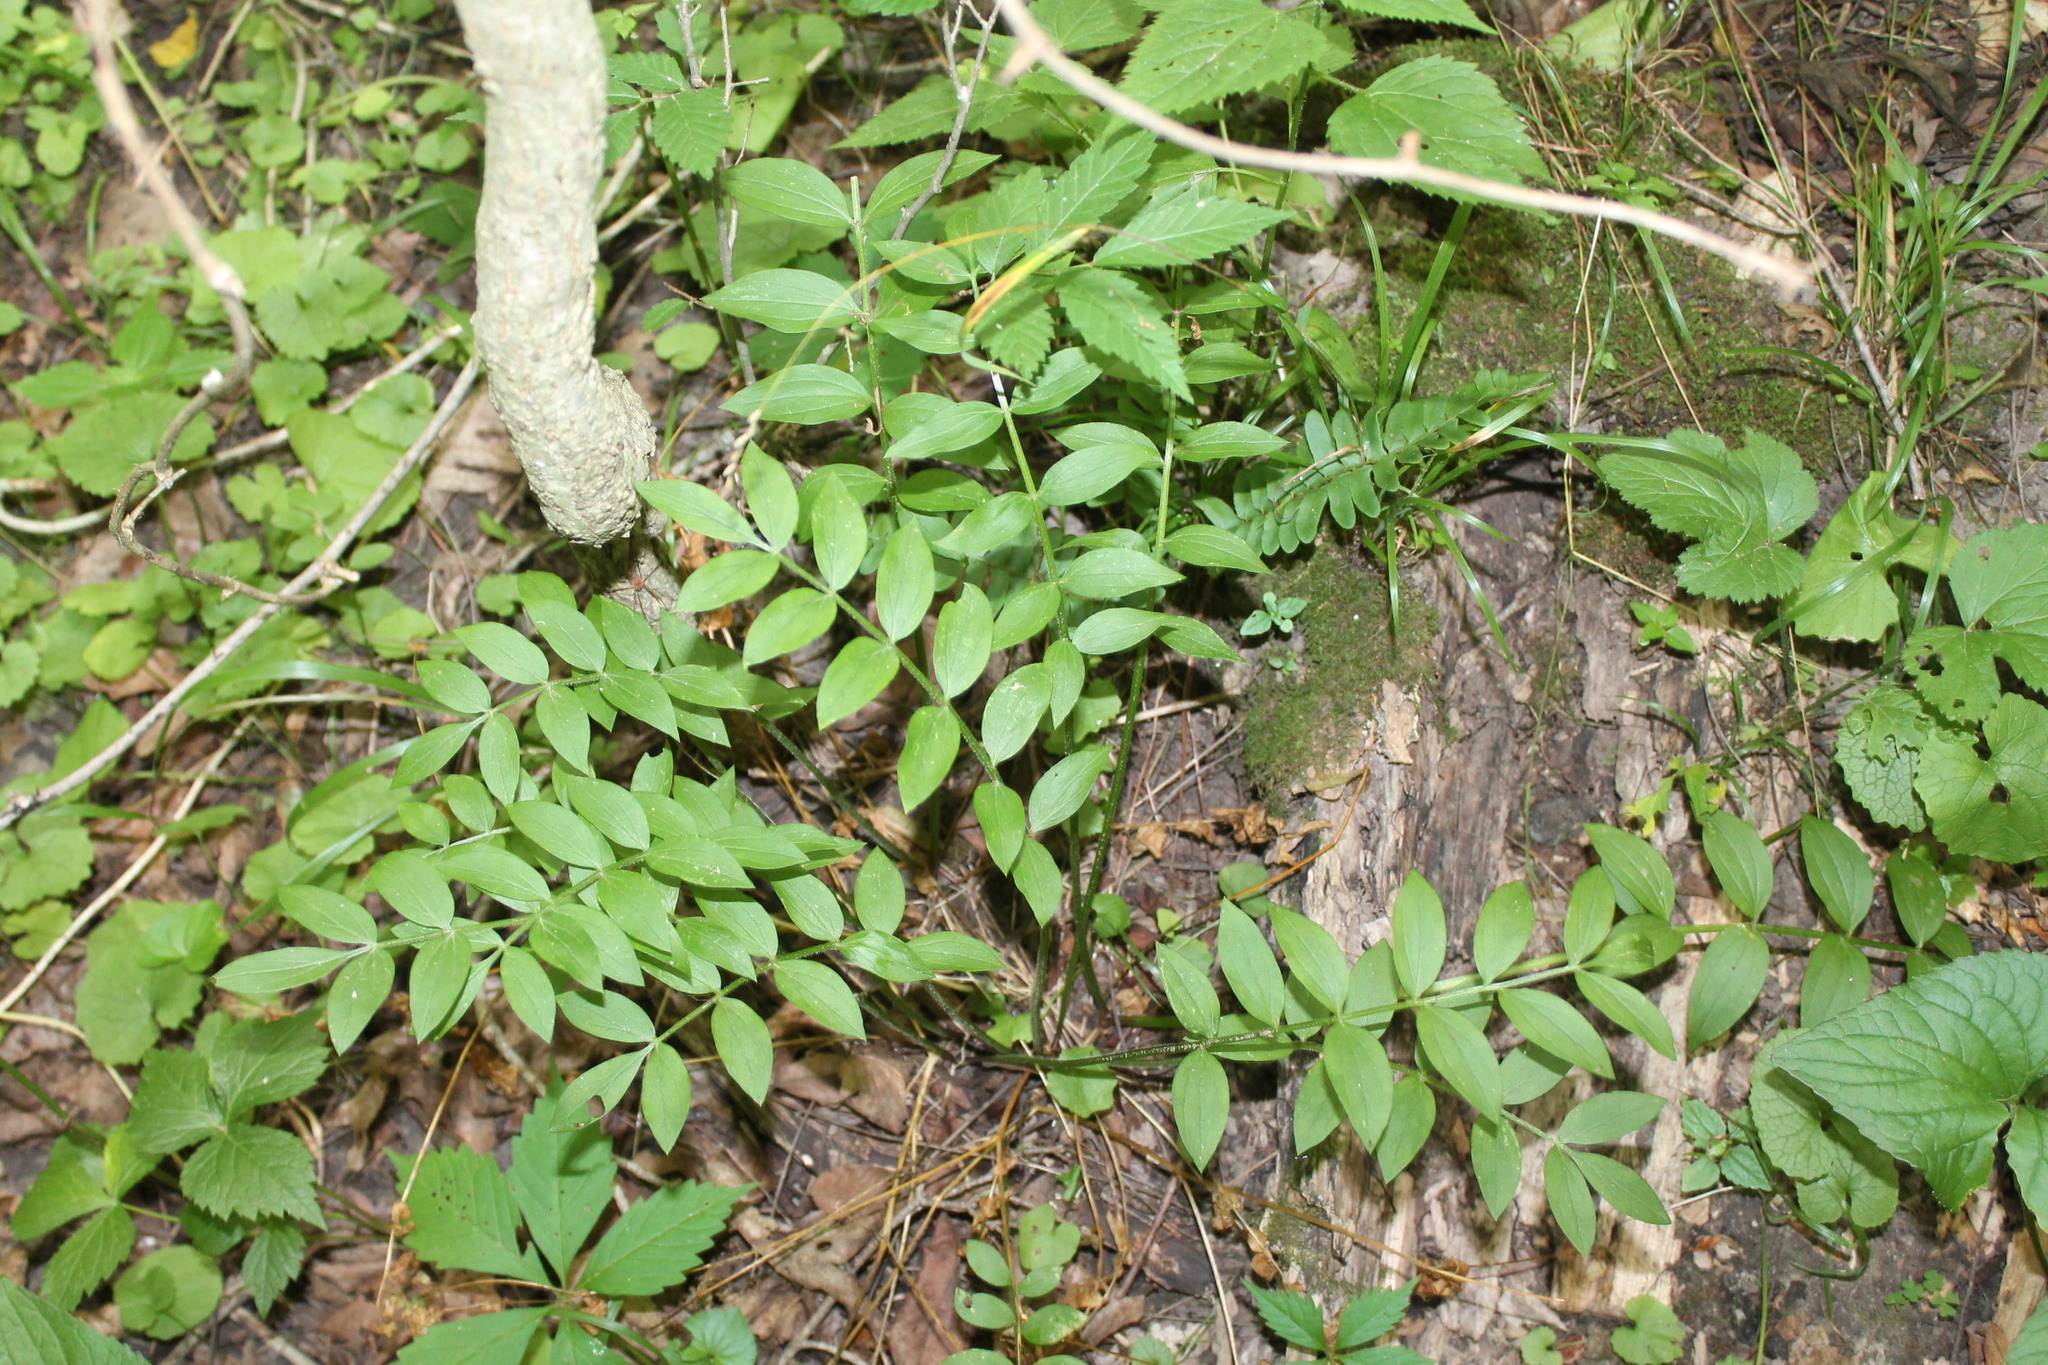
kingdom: Plantae
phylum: Tracheophyta
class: Magnoliopsida
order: Ericales
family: Polemoniaceae
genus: Polemonium
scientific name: Polemonium reptans
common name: Creeping jacob's-ladder
